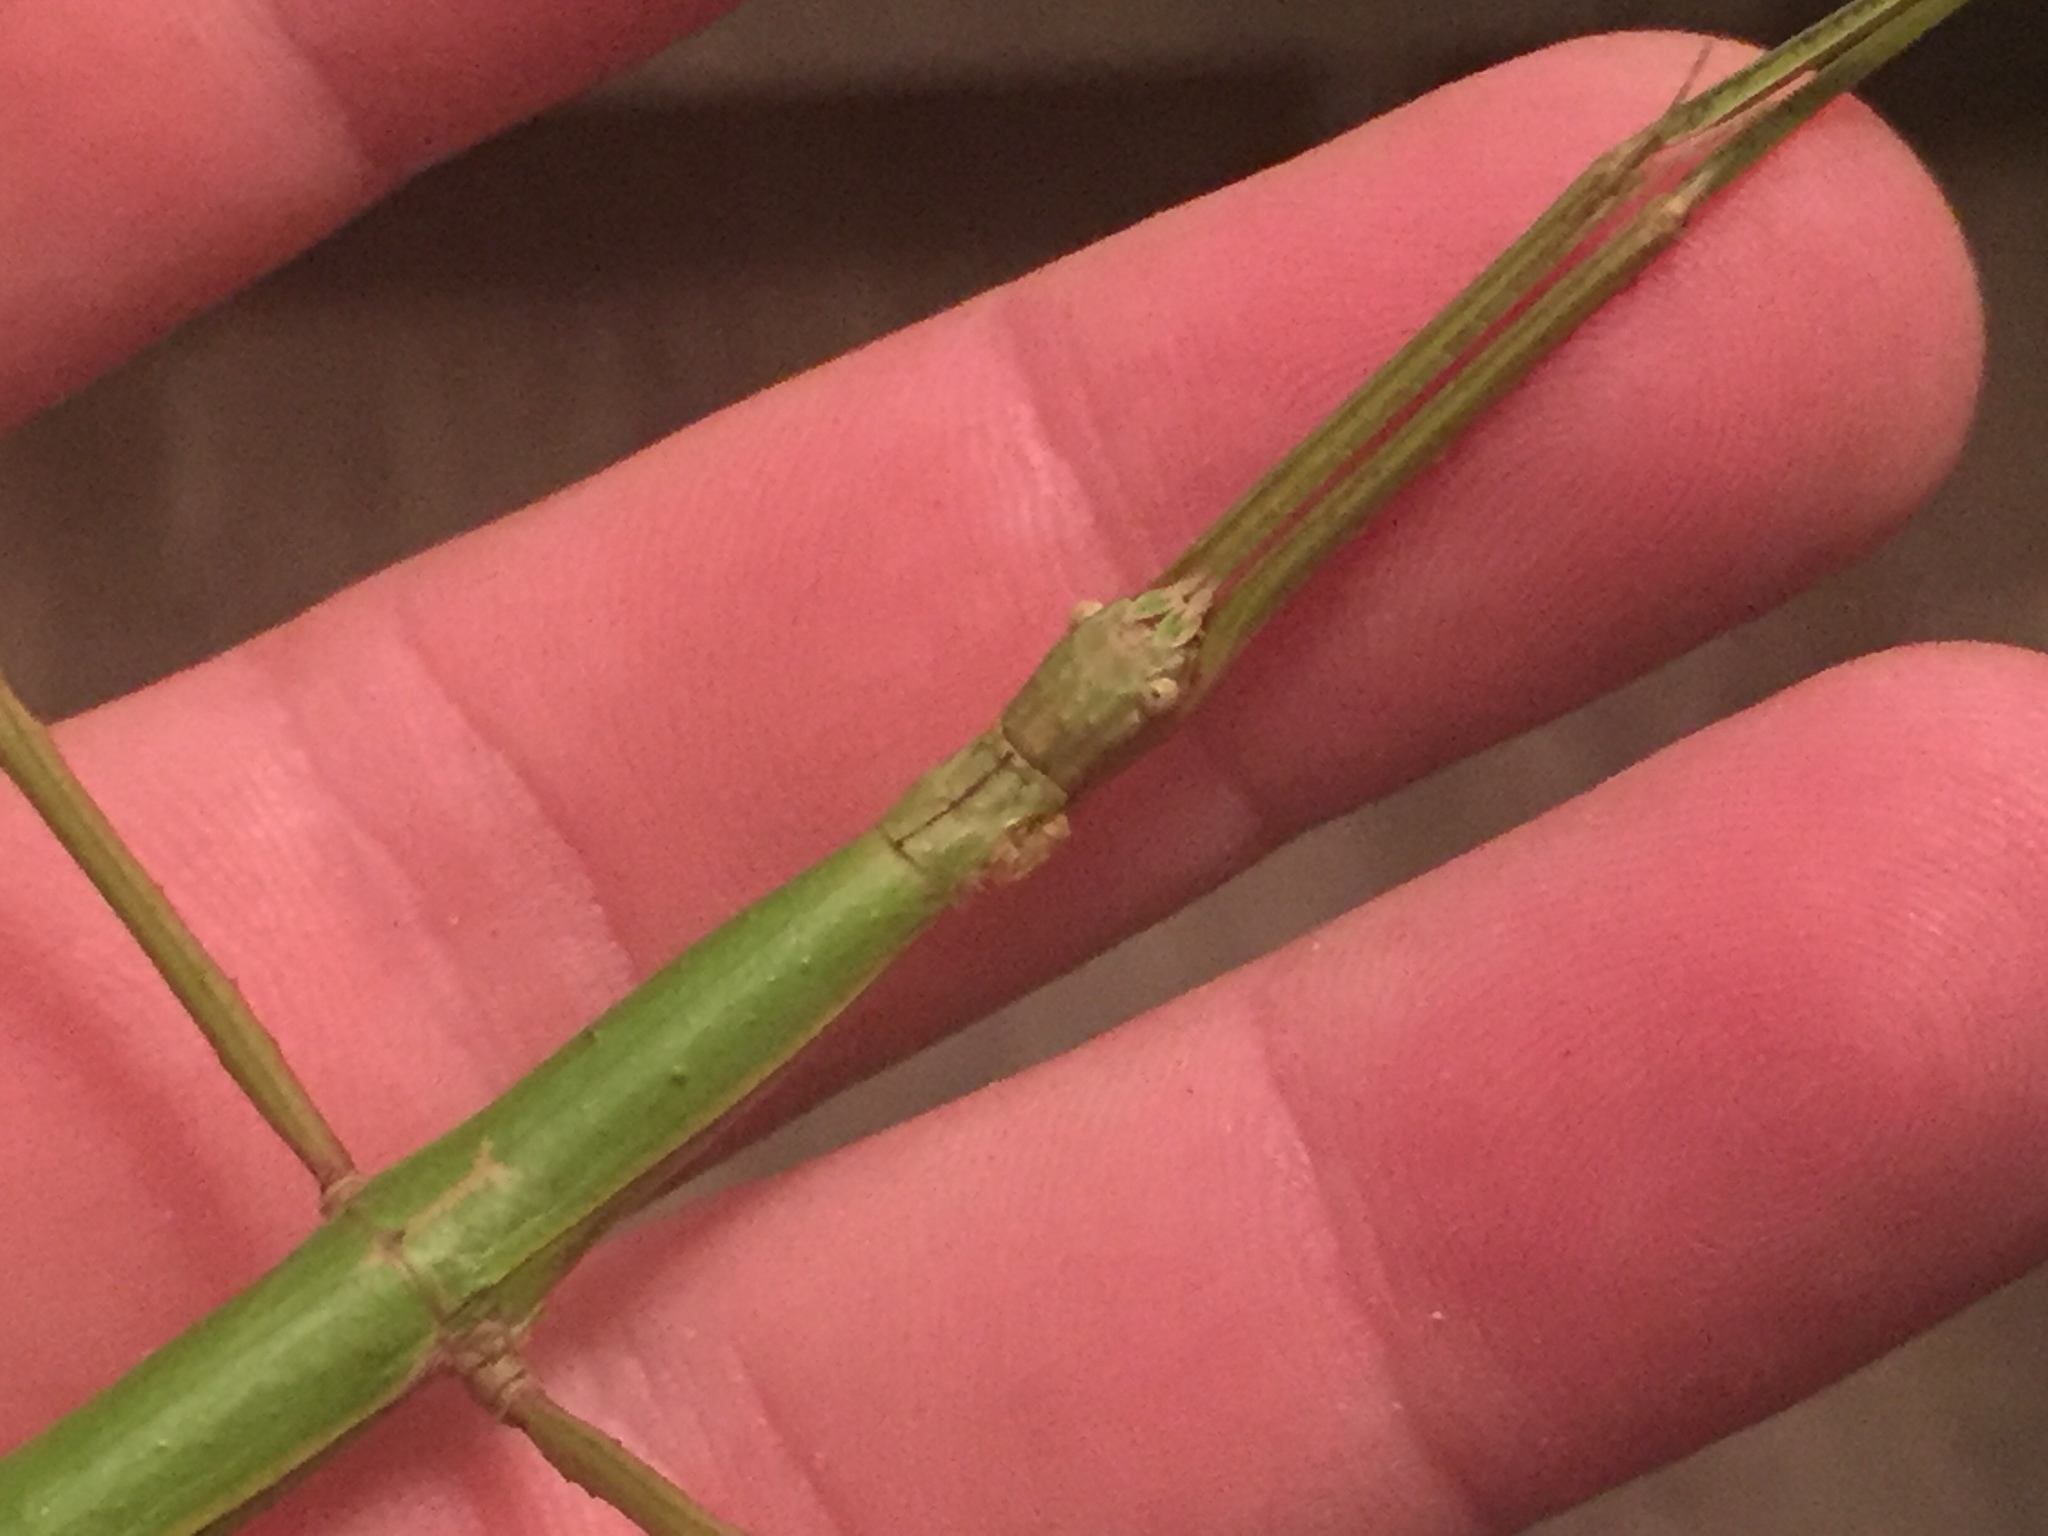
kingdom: Animalia
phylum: Arthropoda
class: Insecta
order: Phasmida
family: Phasmatidae
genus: Acanthoxyla
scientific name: Acanthoxyla inermis
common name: Unarmed stick insect
